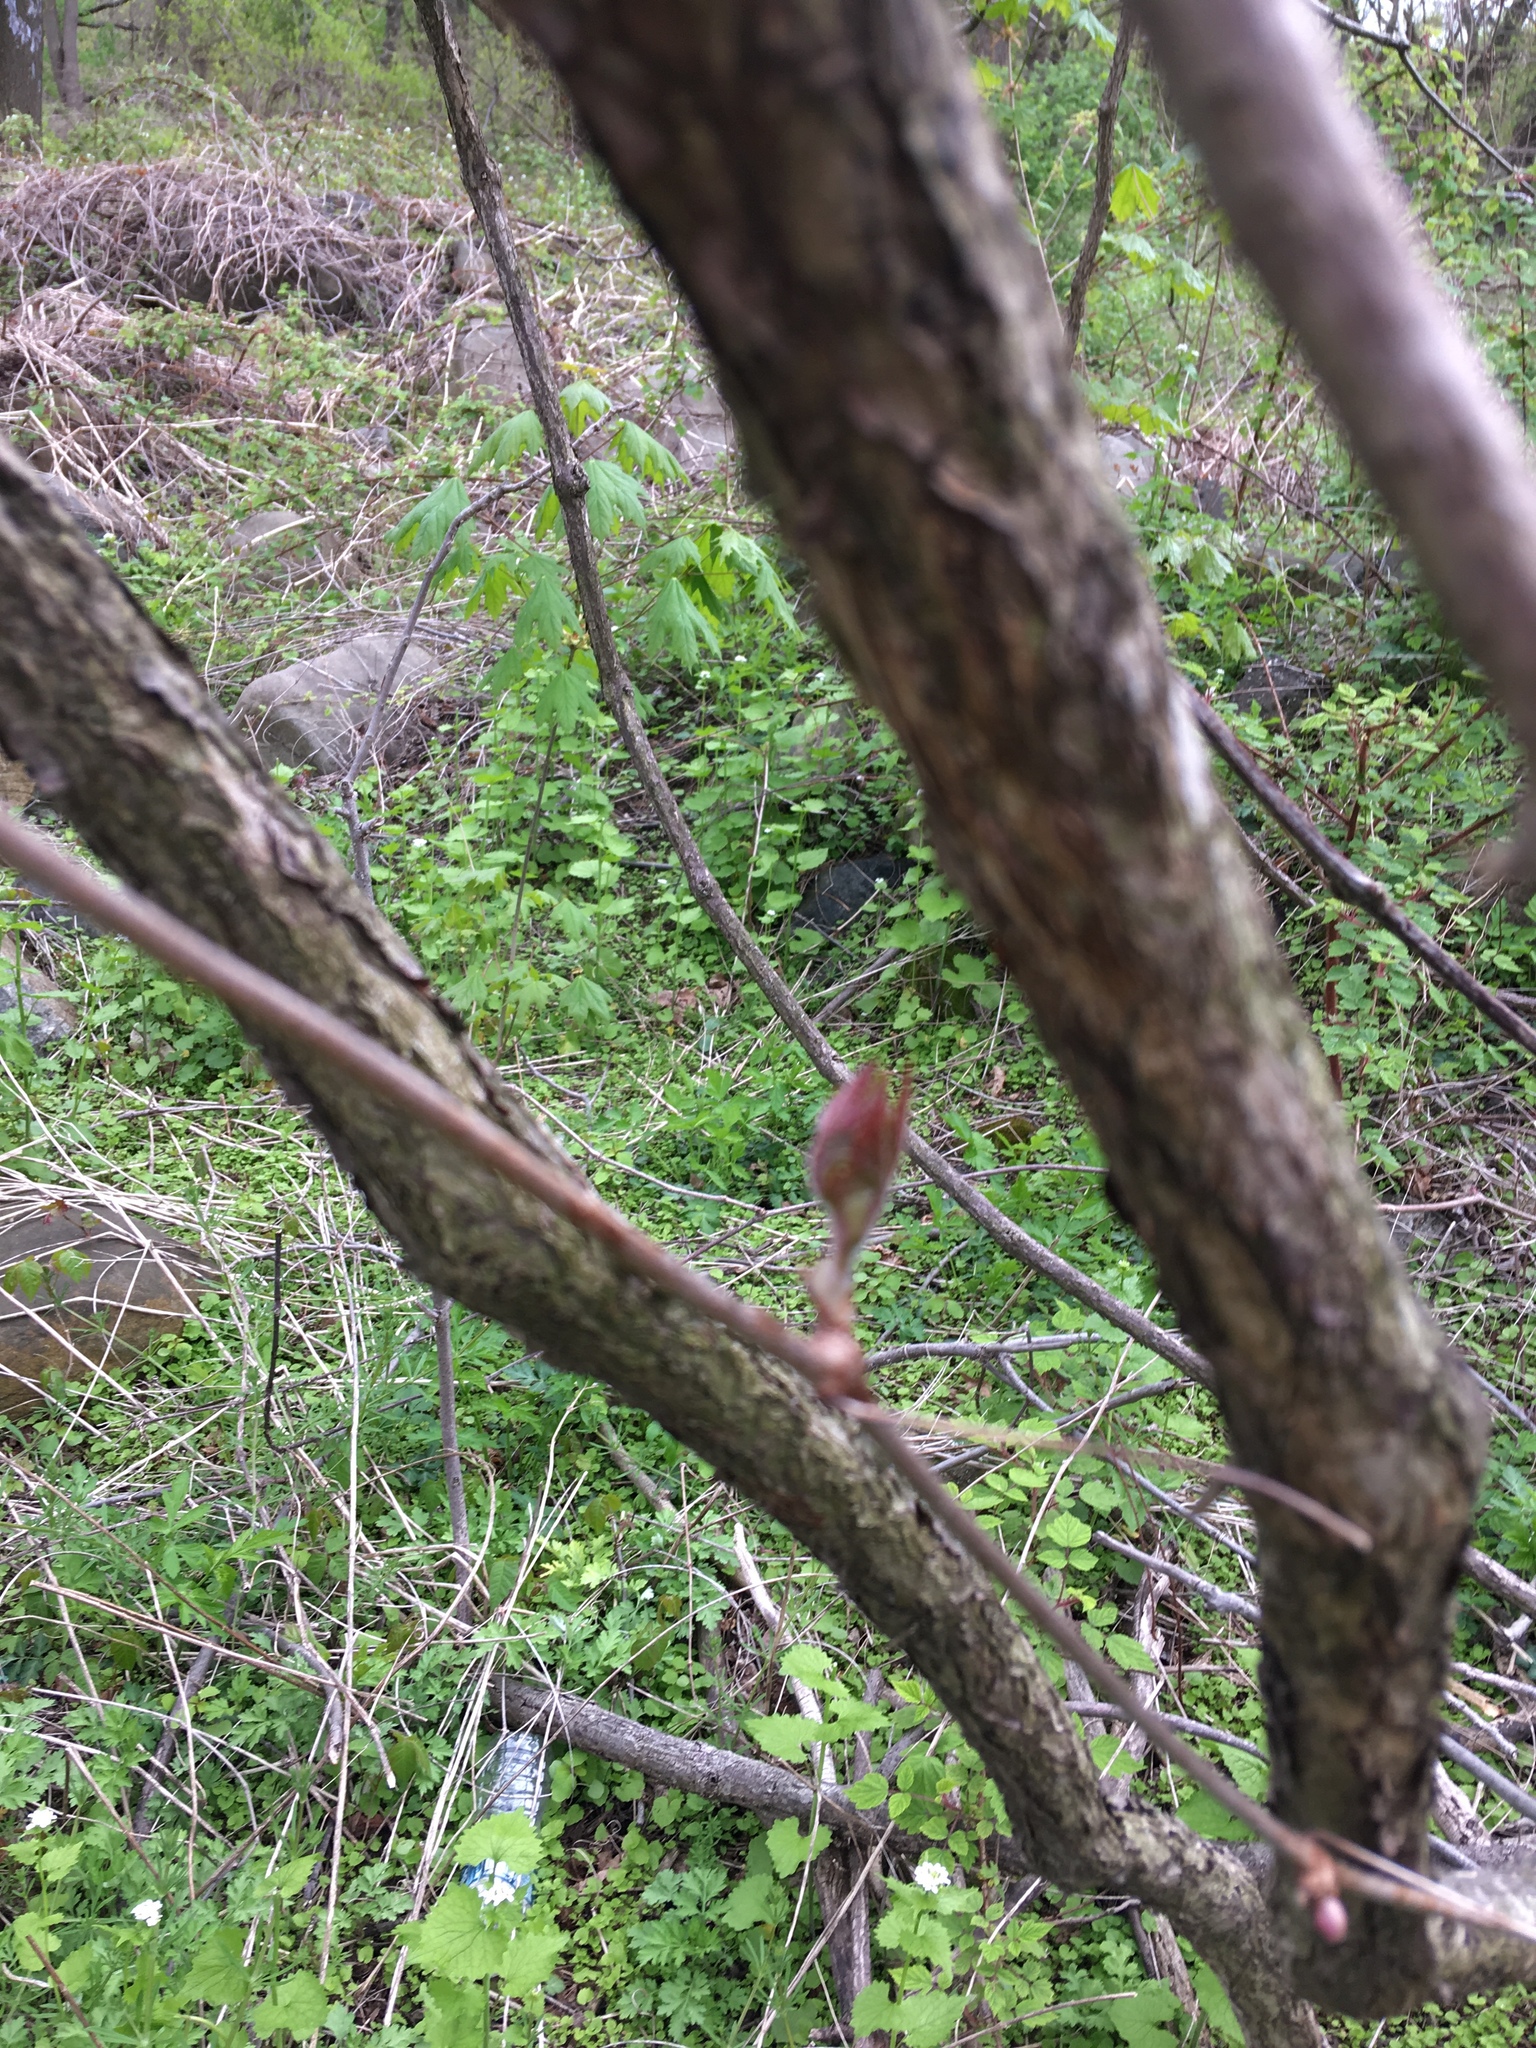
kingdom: Plantae
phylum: Tracheophyta
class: Magnoliopsida
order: Vitales
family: Vitaceae
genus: Ampelopsis
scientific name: Ampelopsis glandulosa
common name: Amur peppervine
